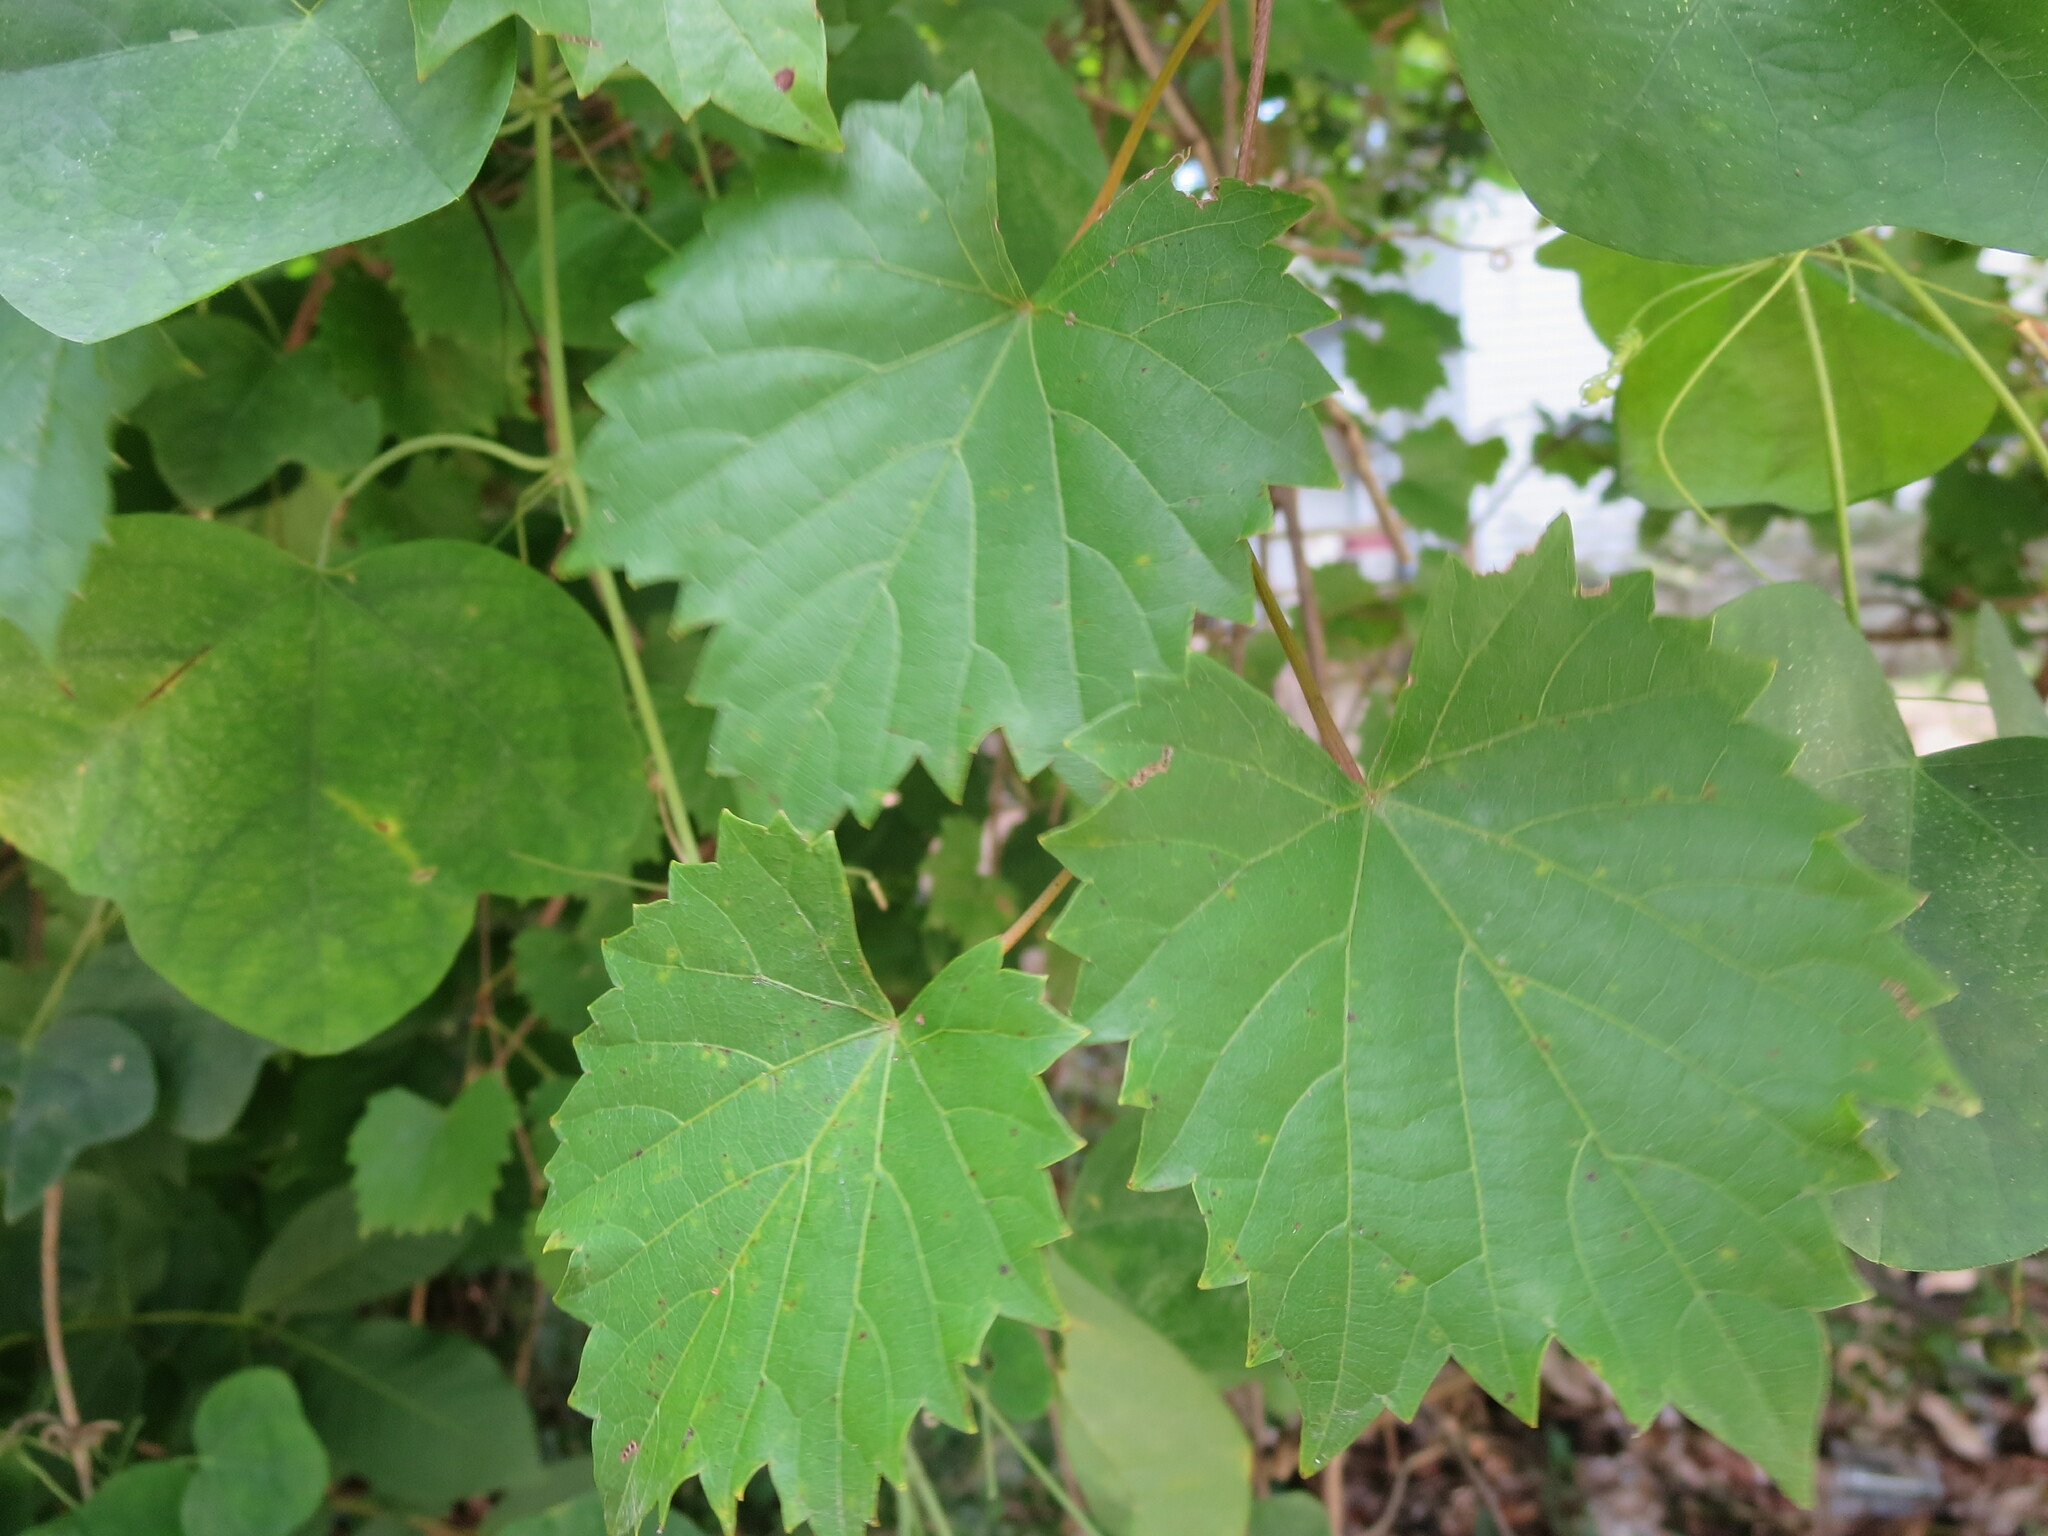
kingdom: Plantae
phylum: Tracheophyta
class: Magnoliopsida
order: Vitales
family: Vitaceae
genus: Vitis
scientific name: Vitis rotundifolia
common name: Muscadine grape
